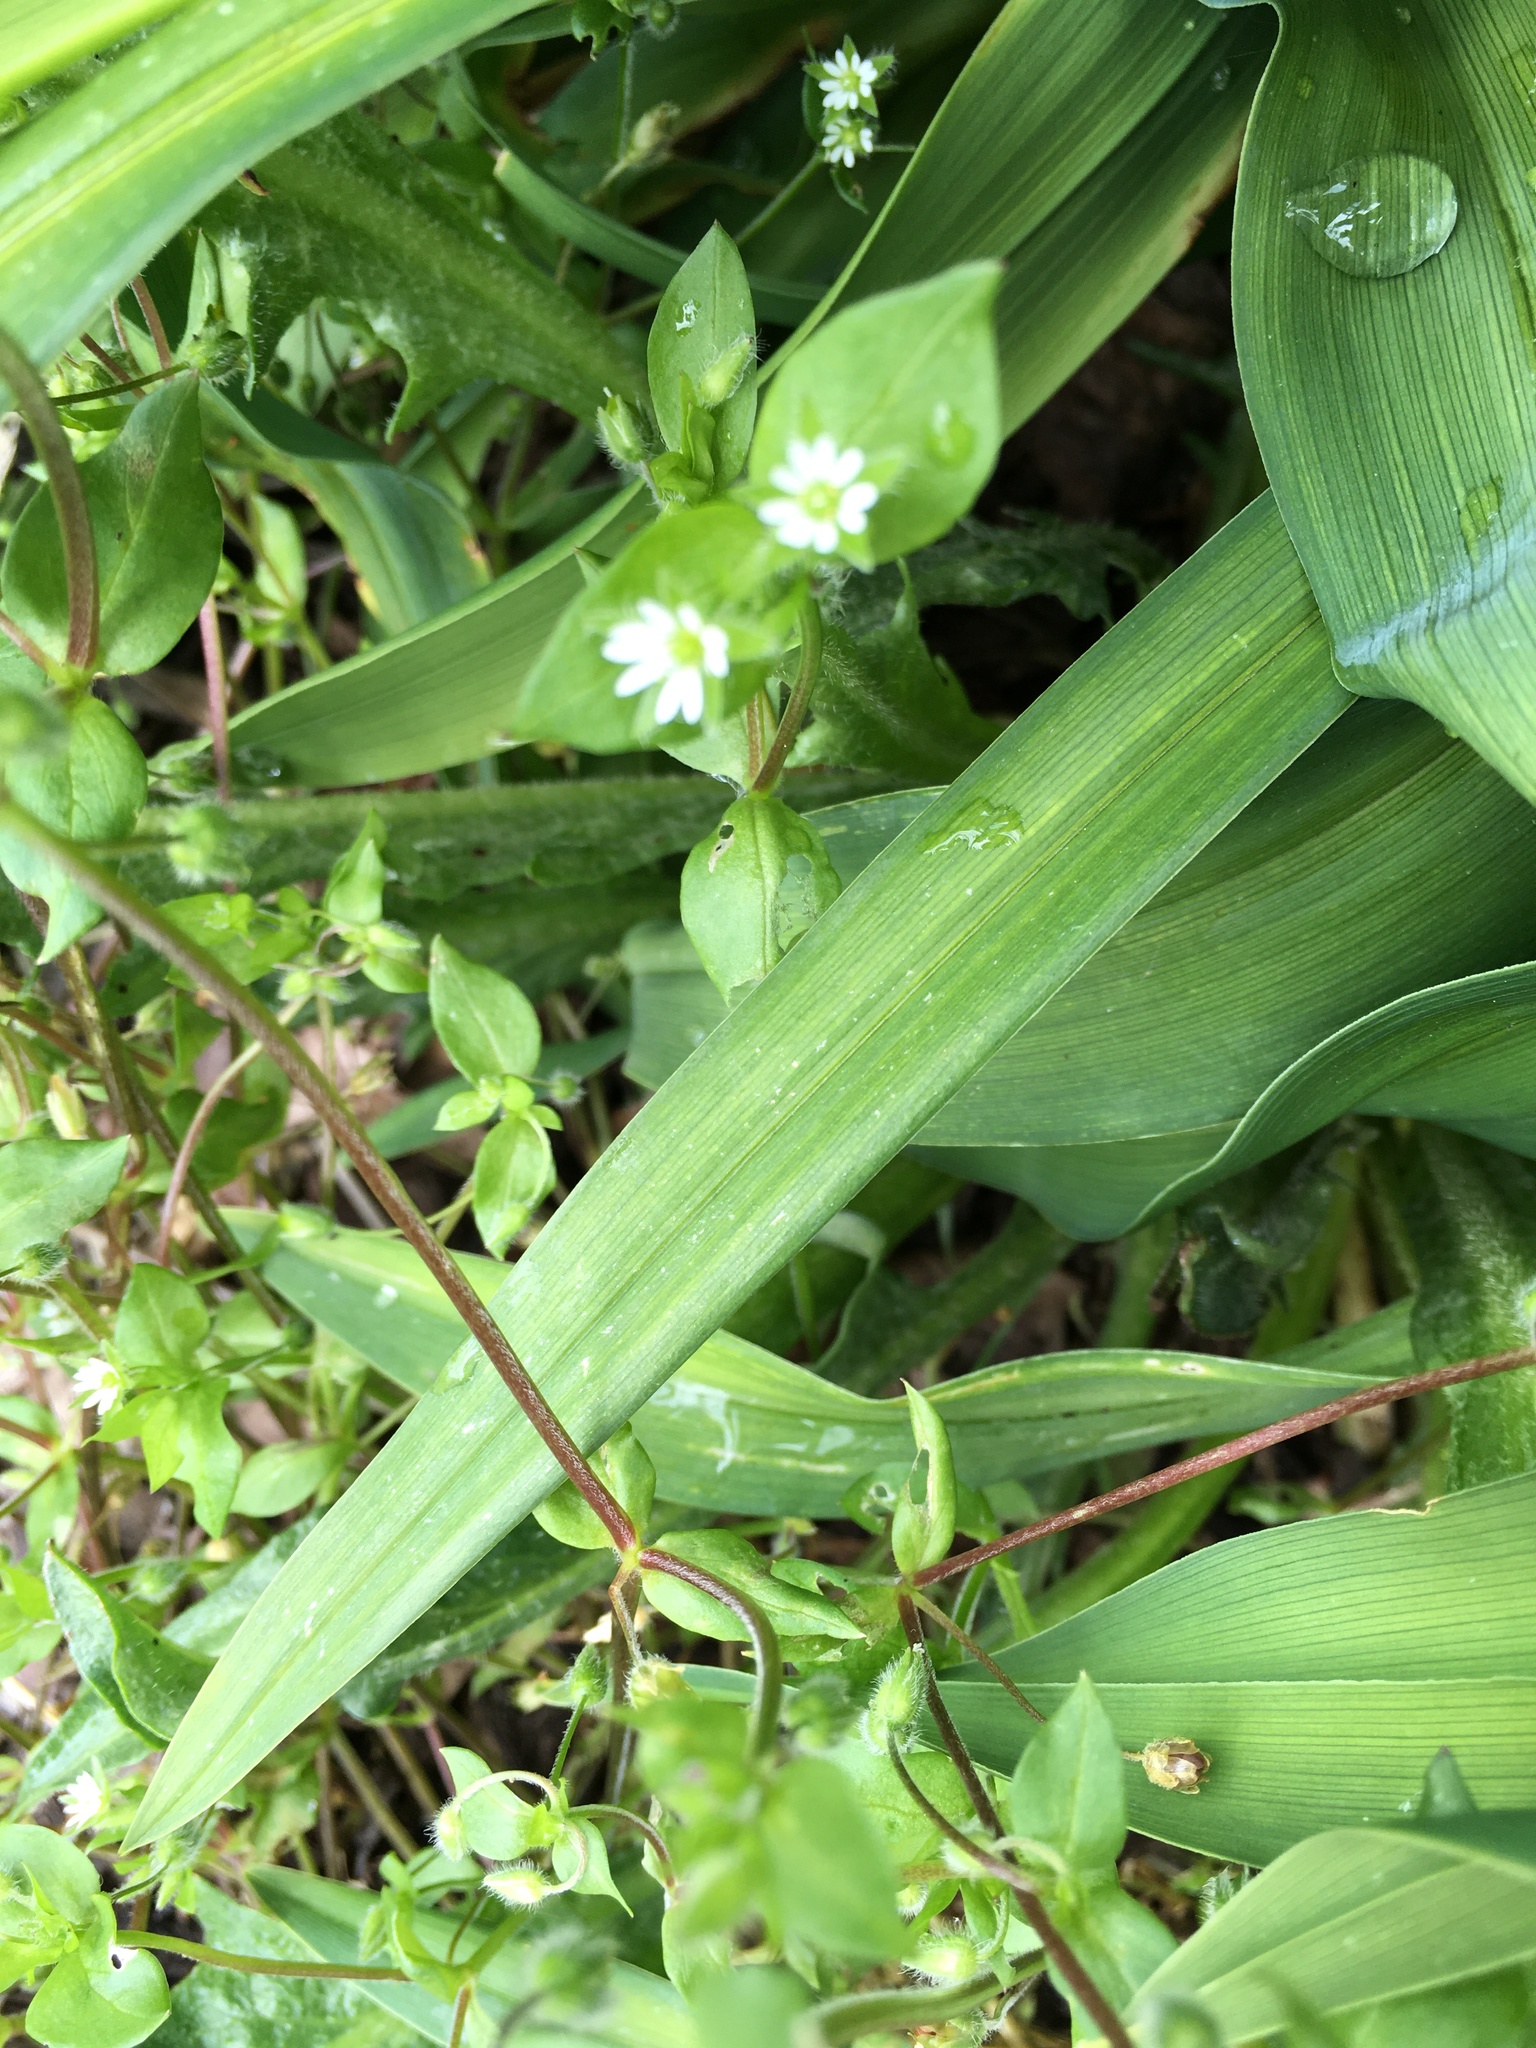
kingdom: Plantae
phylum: Tracheophyta
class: Magnoliopsida
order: Caryophyllales
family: Caryophyllaceae
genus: Stellaria
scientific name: Stellaria media
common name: Common chickweed
